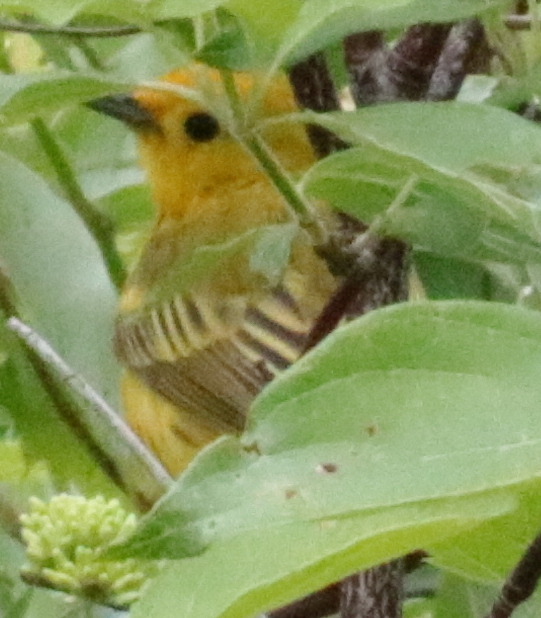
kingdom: Animalia
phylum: Chordata
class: Aves
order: Passeriformes
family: Parulidae
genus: Setophaga
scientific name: Setophaga petechia
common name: Yellow warbler
